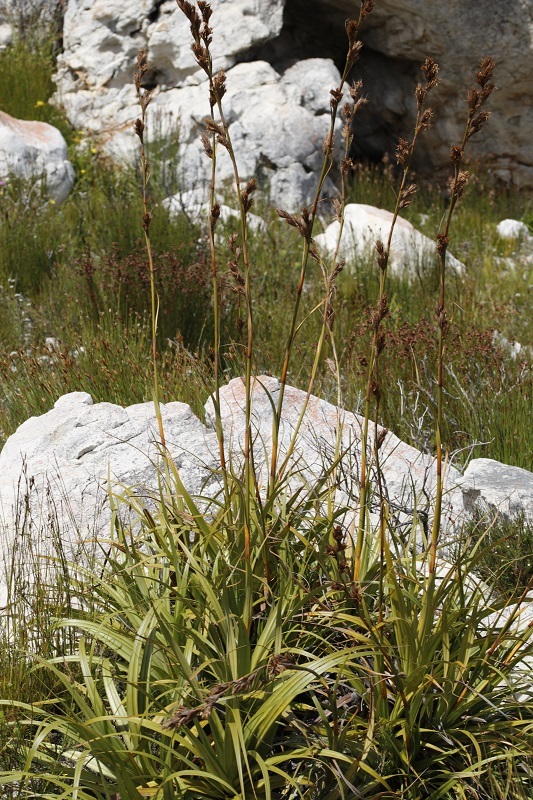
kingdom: Plantae
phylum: Tracheophyta
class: Liliopsida
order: Poales
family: Cyperaceae
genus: Tetraria
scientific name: Tetraria thermalis
